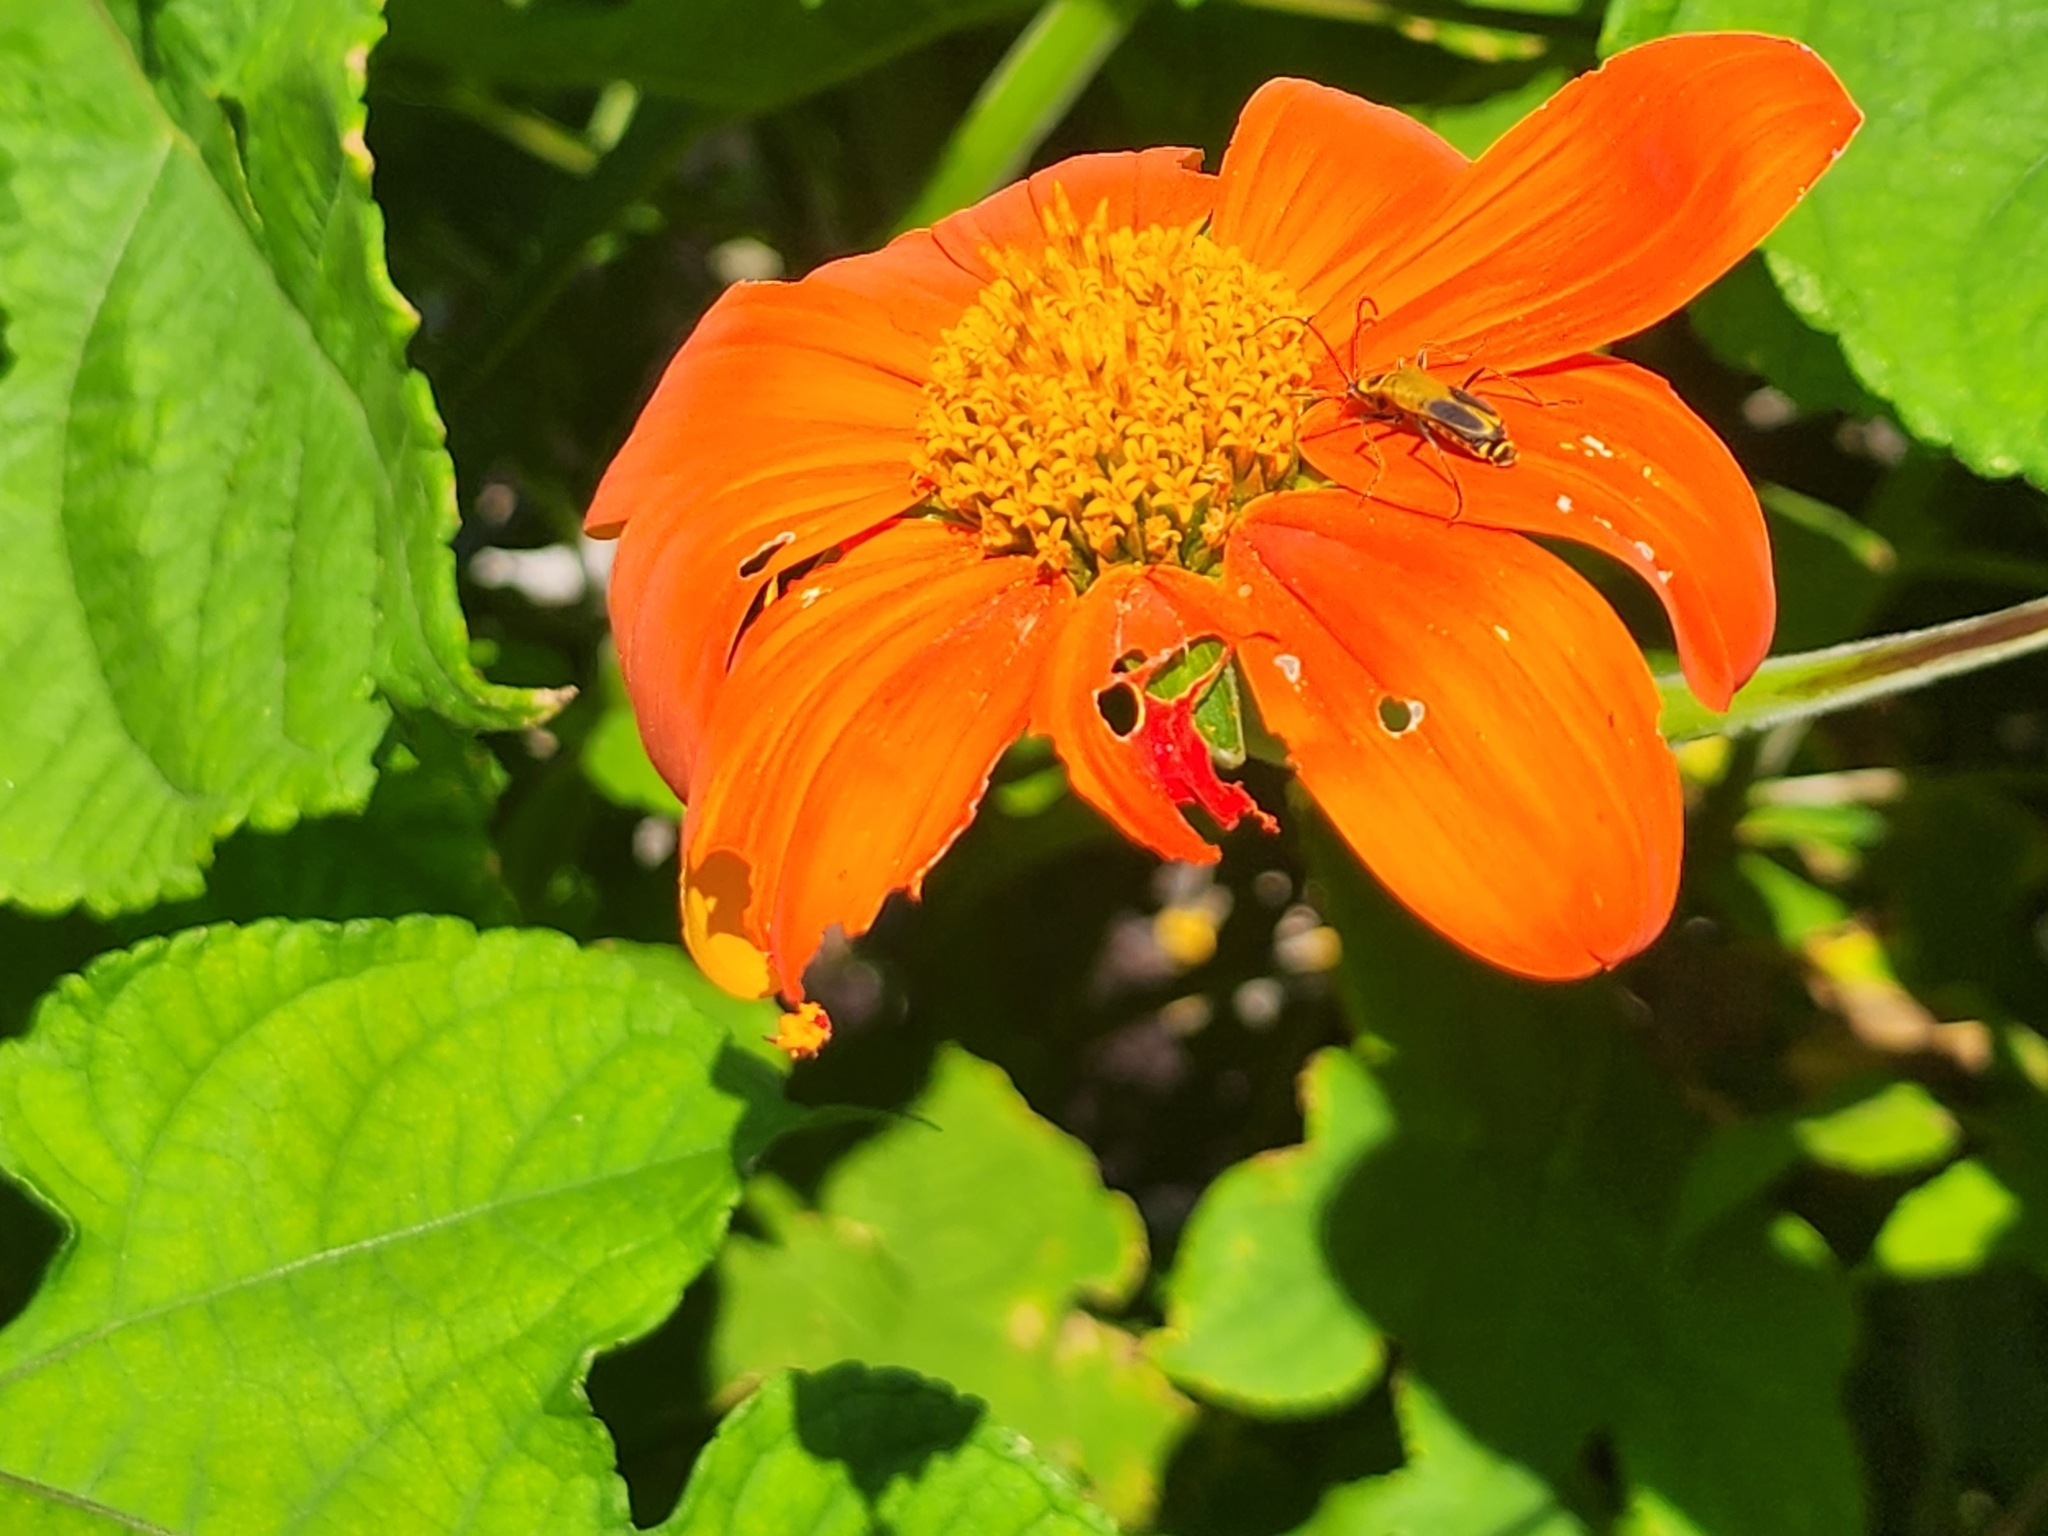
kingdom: Animalia
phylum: Arthropoda
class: Insecta
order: Coleoptera
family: Cantharidae
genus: Chauliognathus
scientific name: Chauliognathus pensylvanicus
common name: Goldenrod soldier beetle
